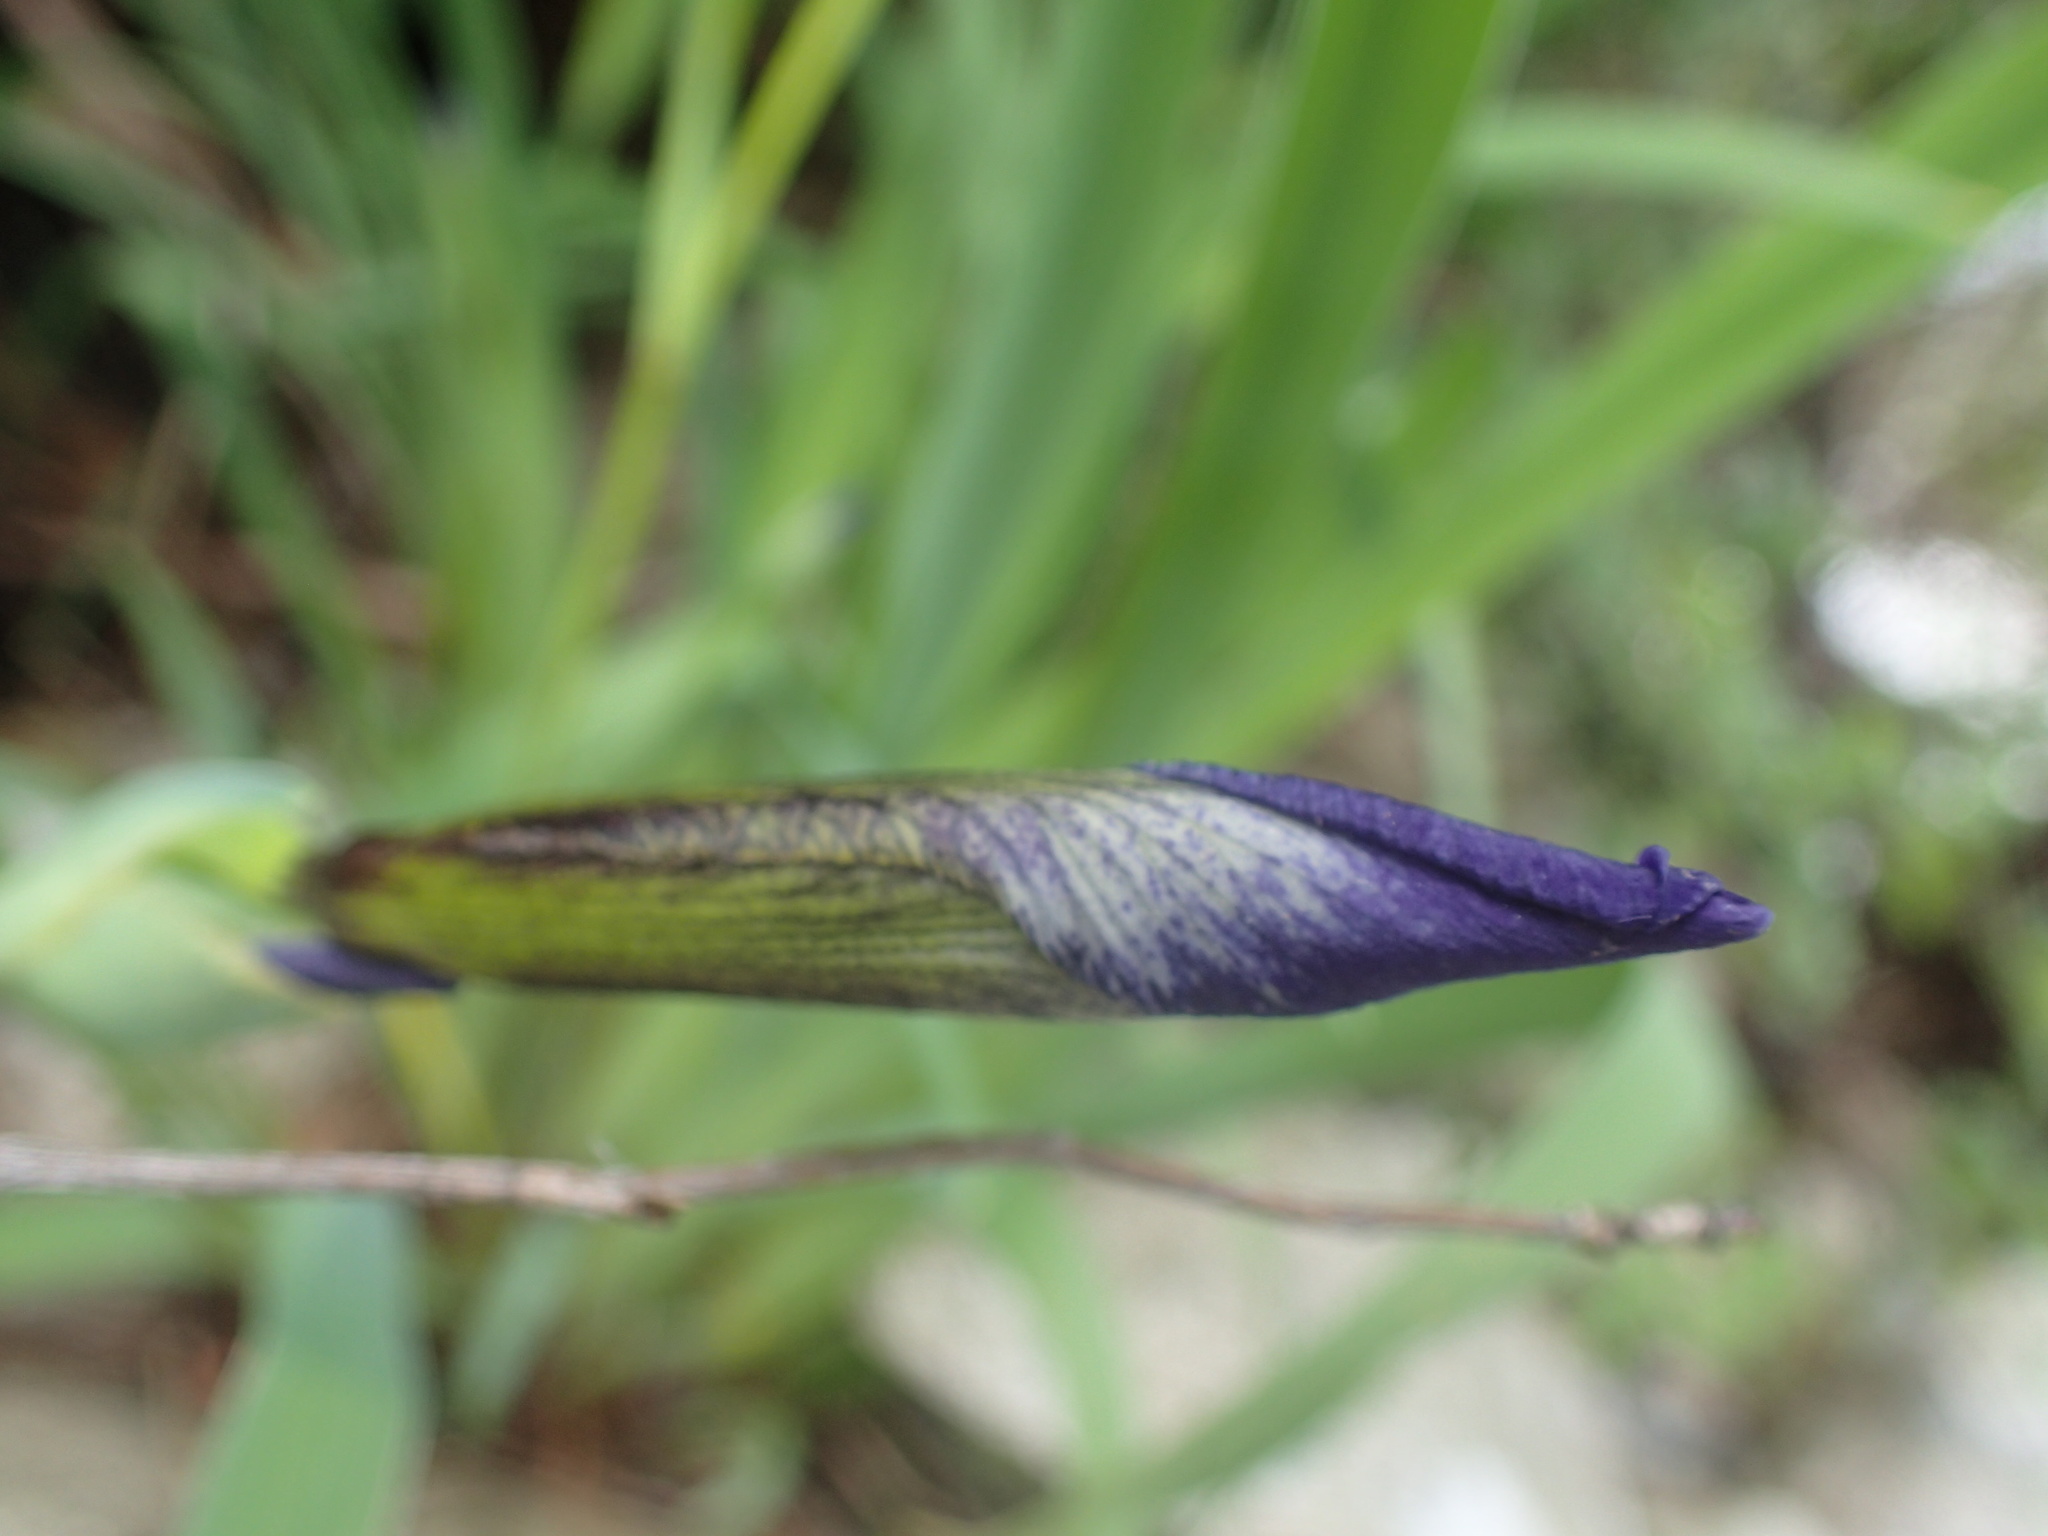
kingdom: Plantae
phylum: Tracheophyta
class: Liliopsida
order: Asparagales
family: Iridaceae
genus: Iris
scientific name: Iris versicolor
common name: Purple iris
